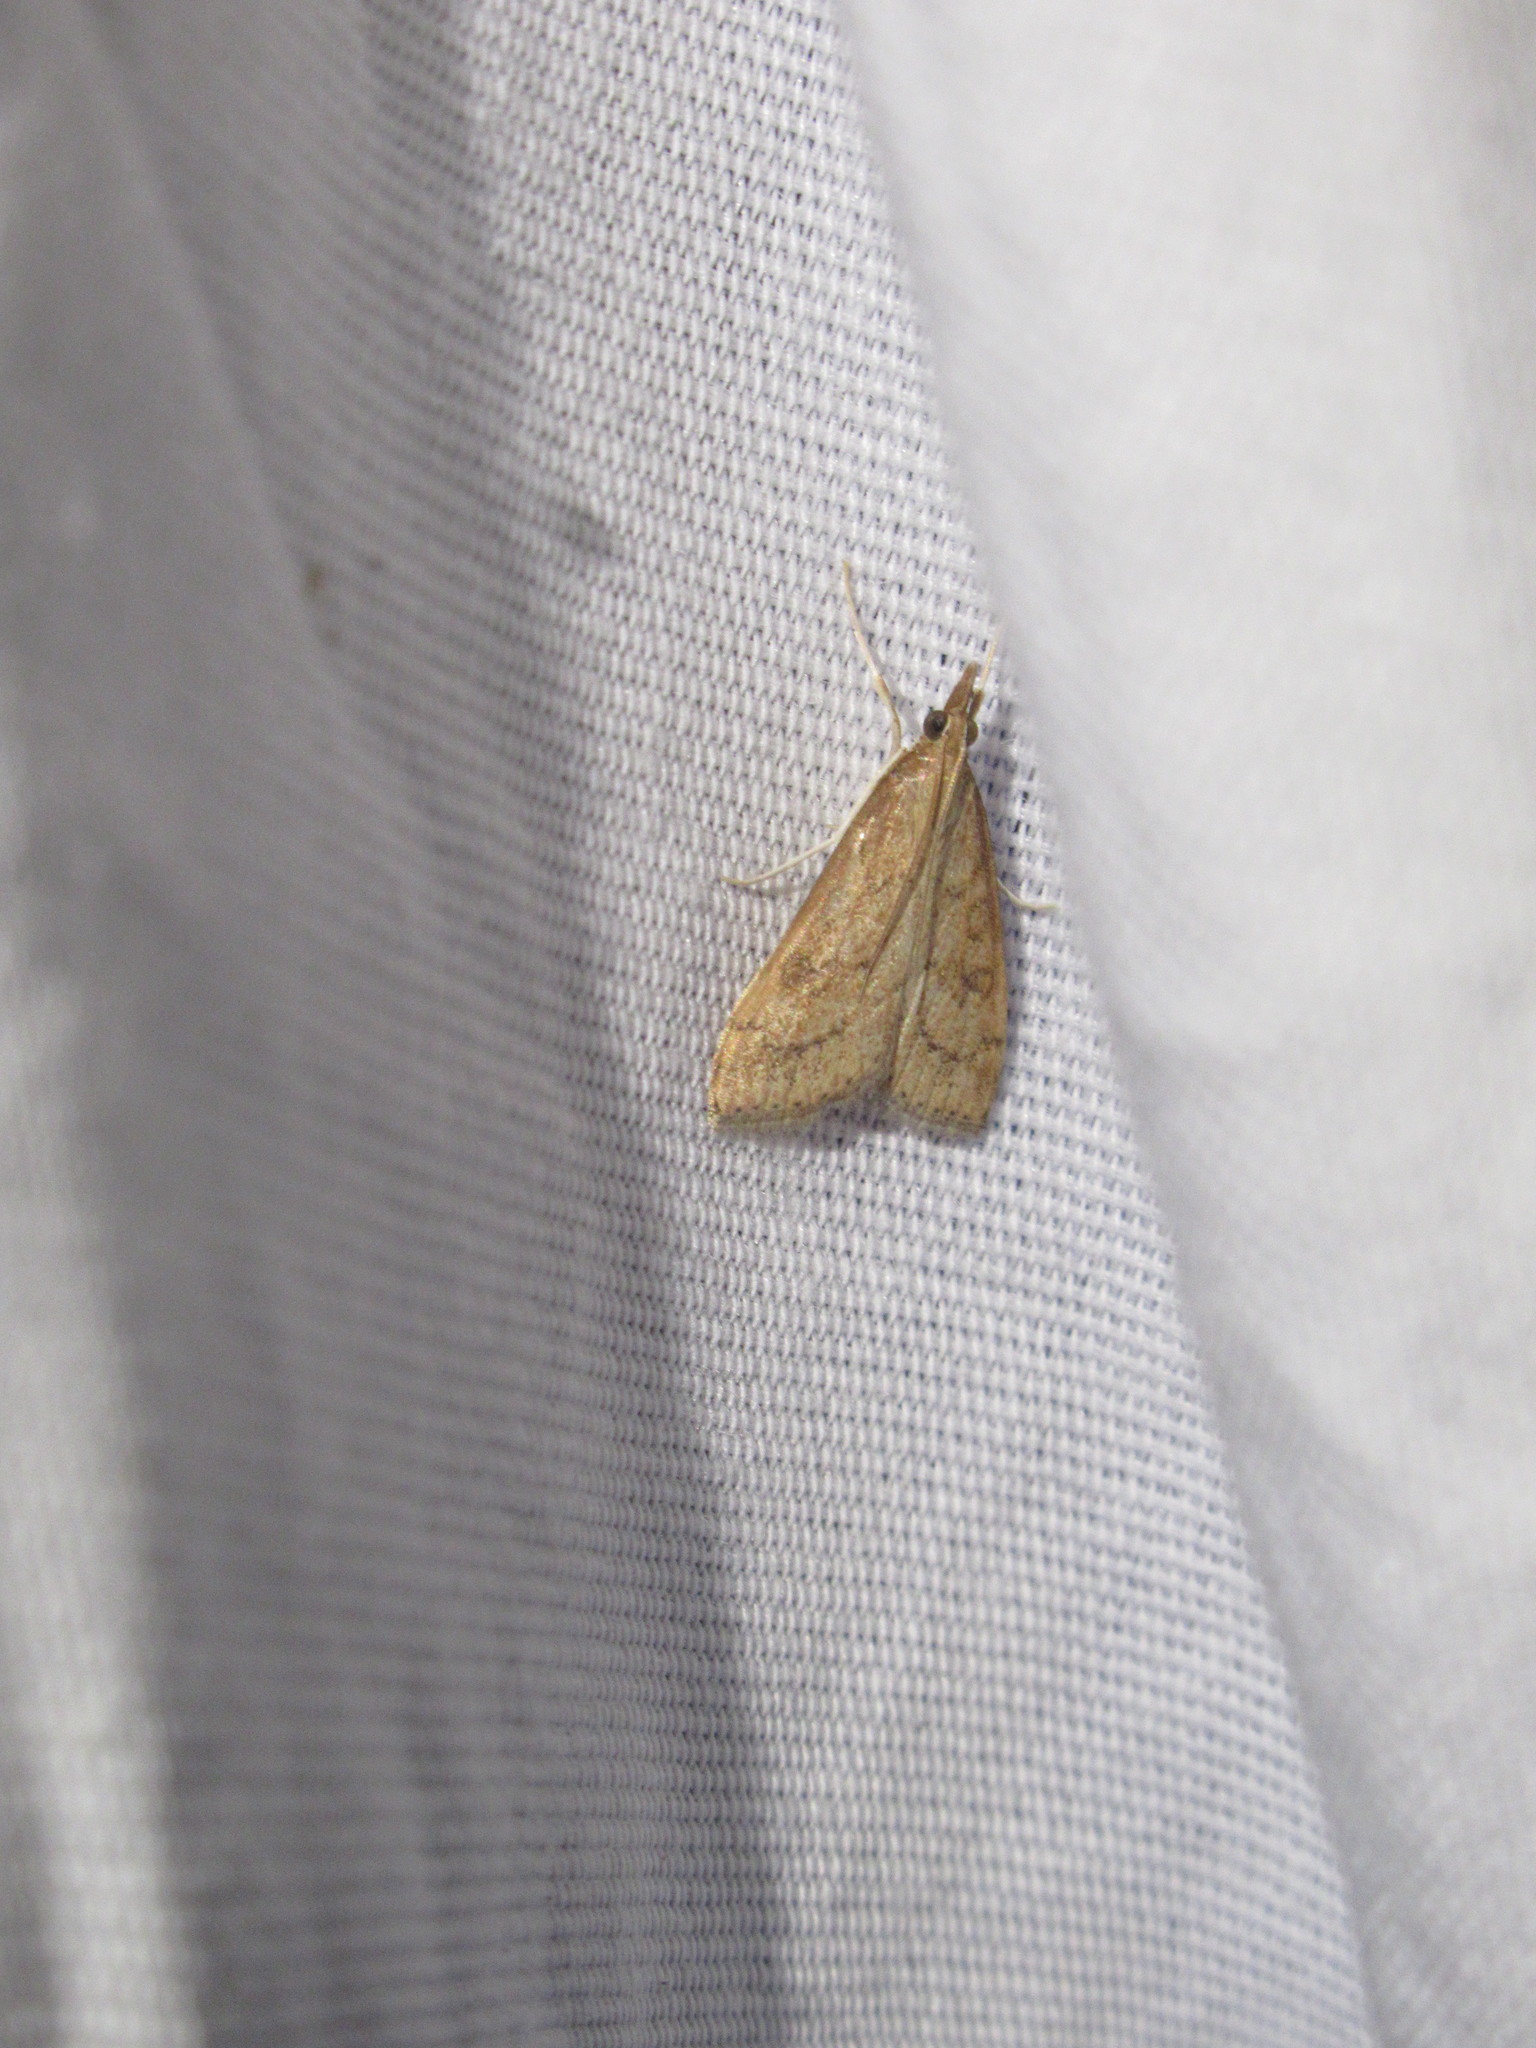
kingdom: Animalia
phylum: Arthropoda
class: Insecta
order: Lepidoptera
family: Crambidae
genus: Udea
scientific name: Udea rubigalis
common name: Celery leaftier moth
